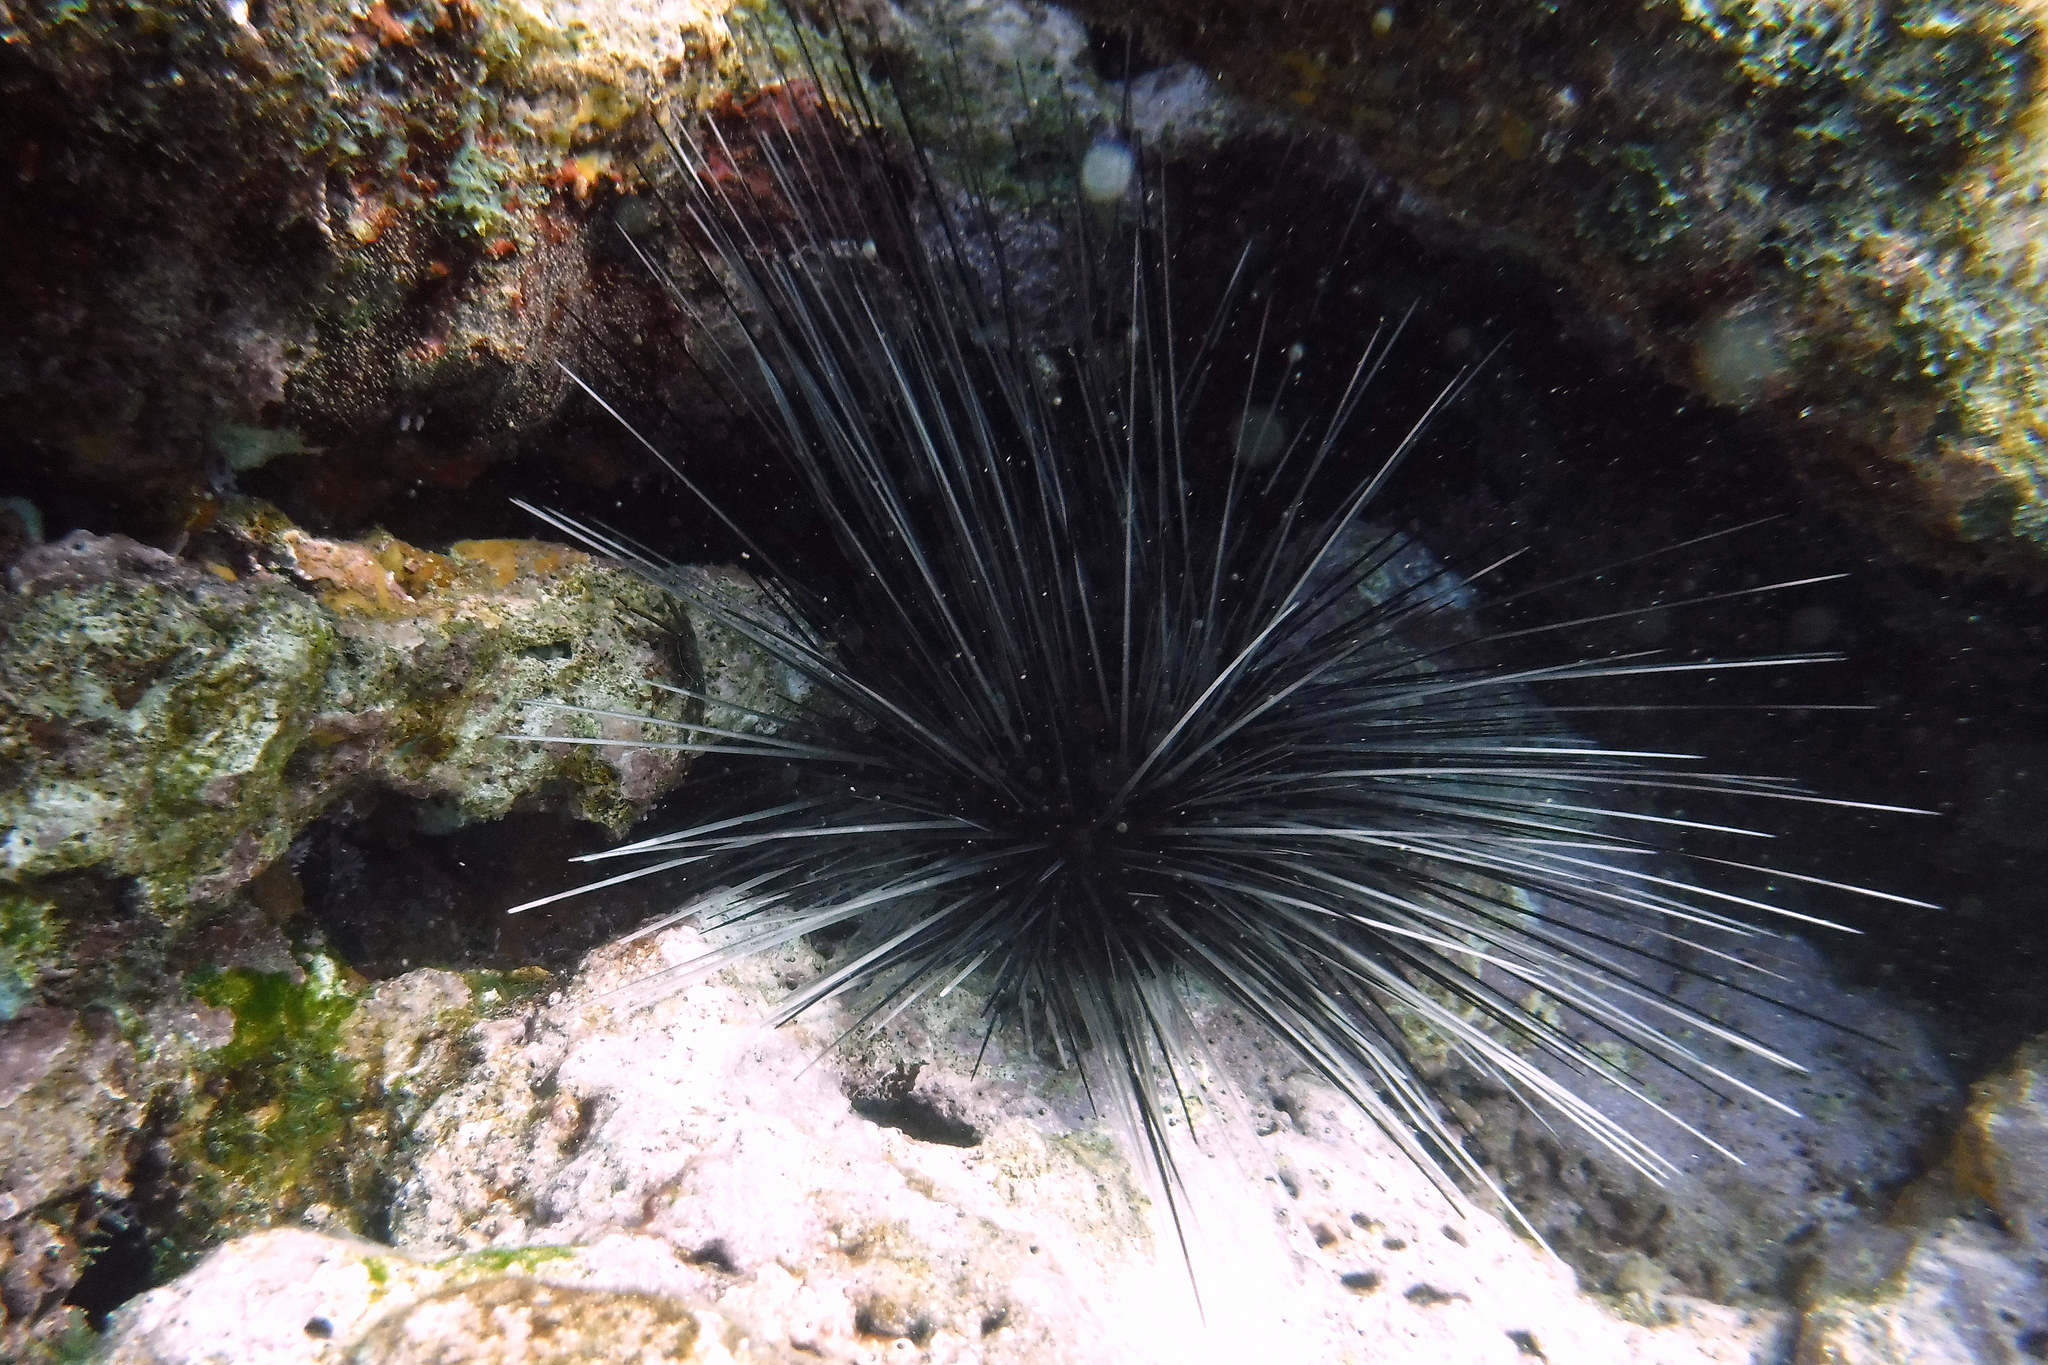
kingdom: Animalia
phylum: Echinodermata
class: Echinoidea
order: Diadematoida
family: Diadematidae
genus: Diadema
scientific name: Diadema antillarum
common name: Spiny urchin
